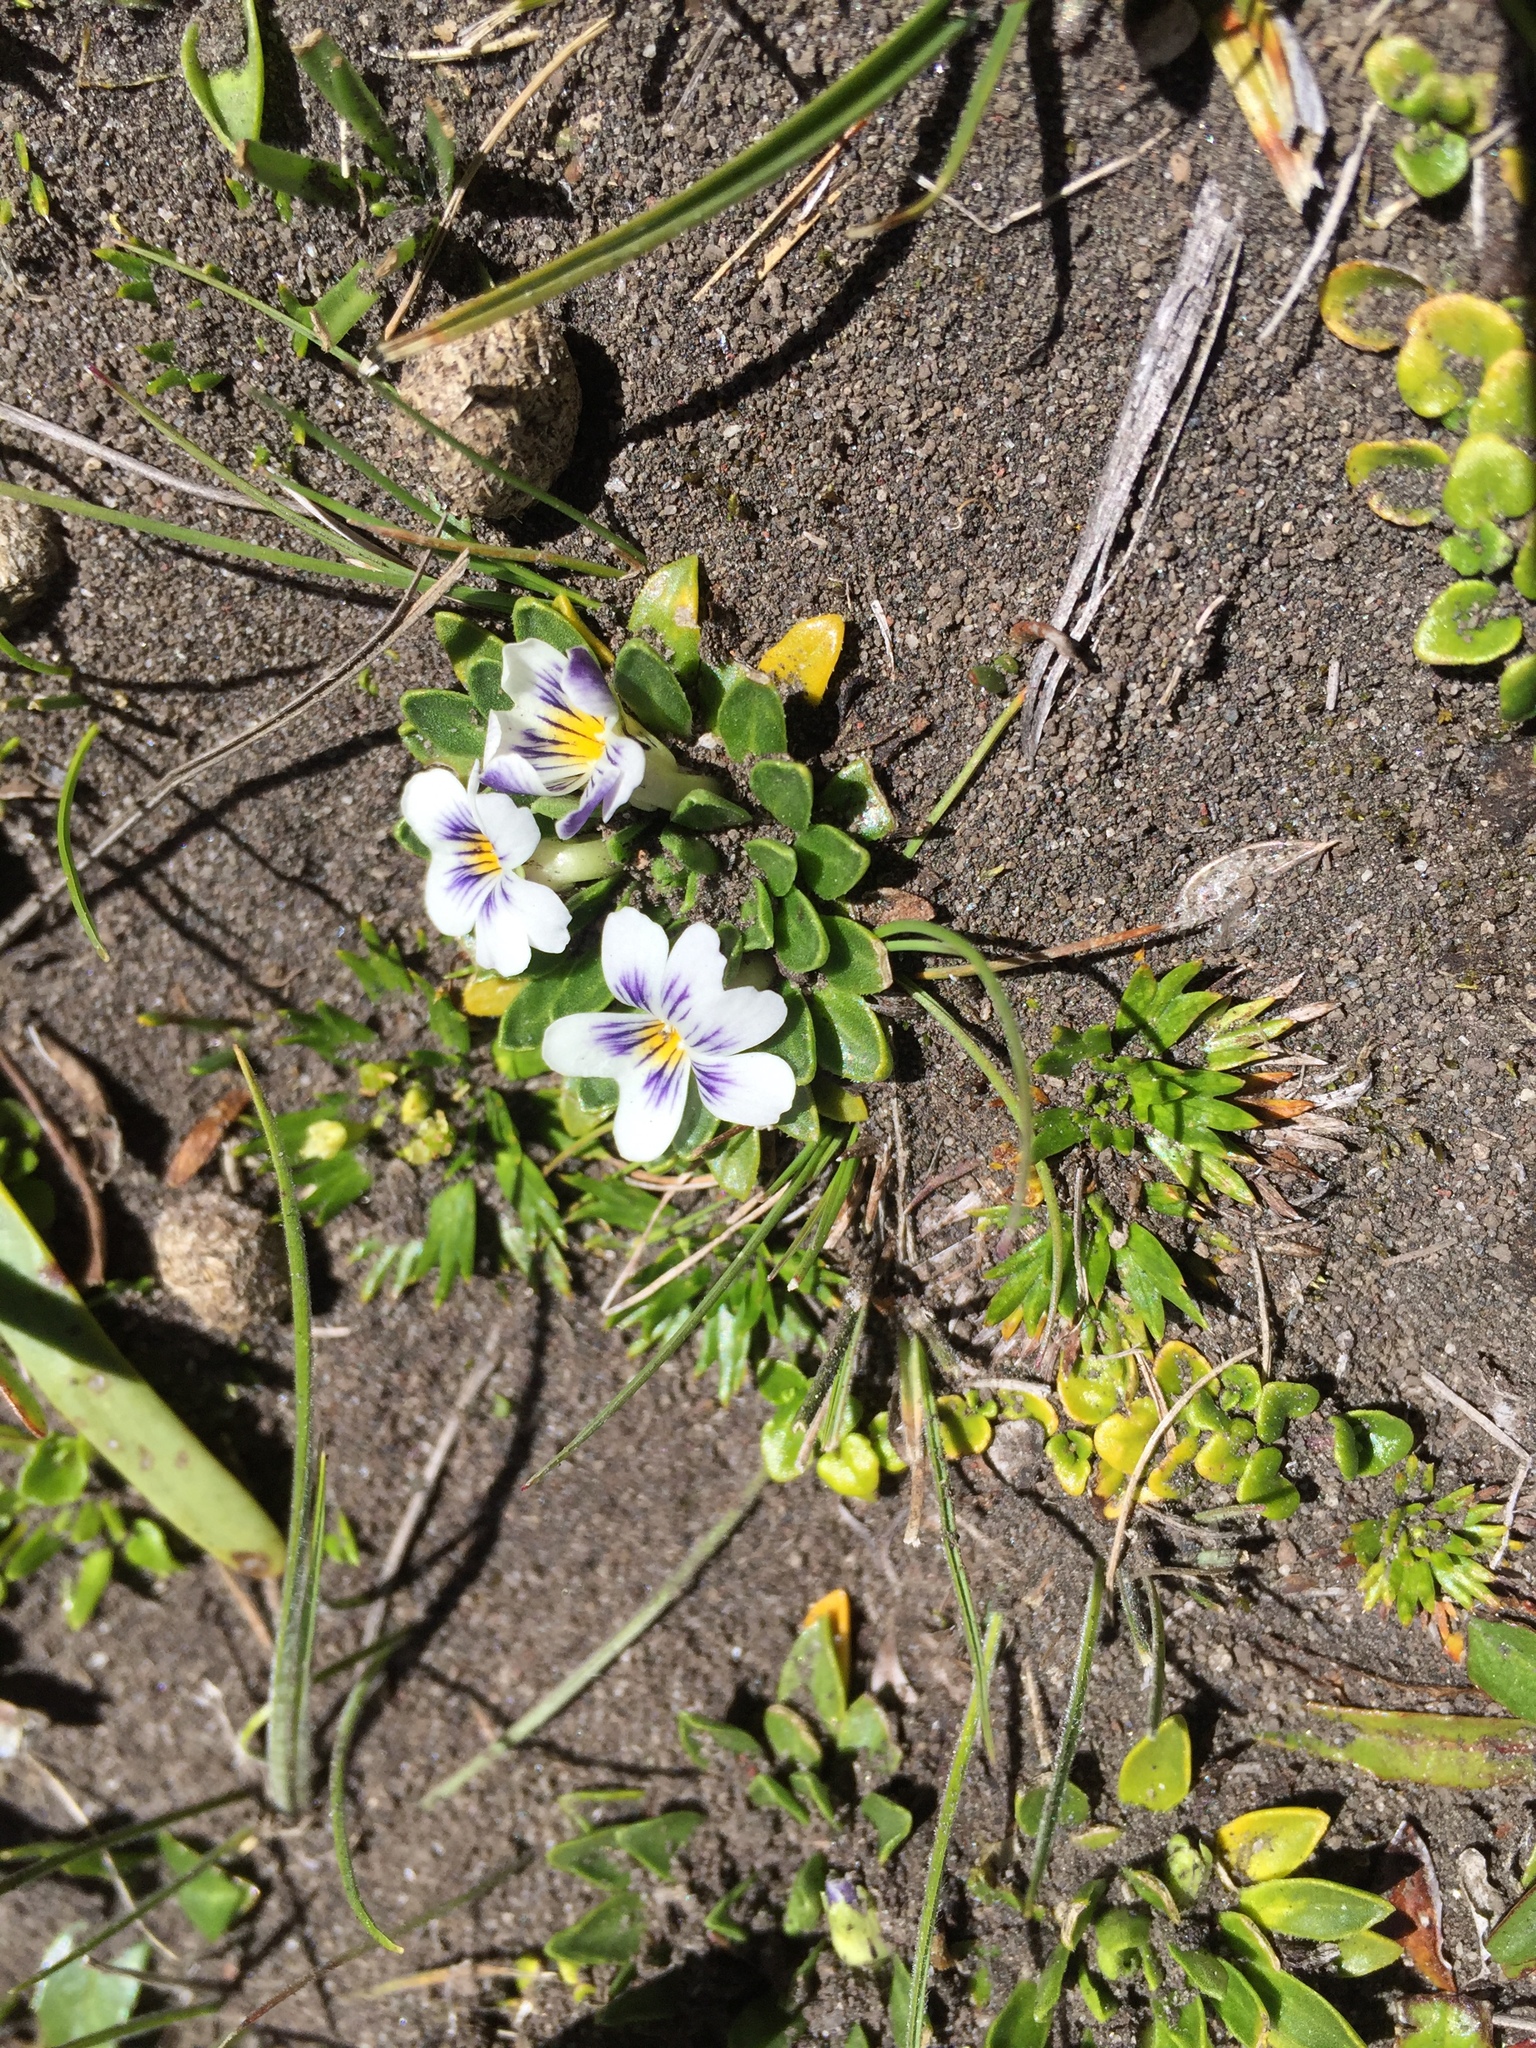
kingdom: Plantae
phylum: Tracheophyta
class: Magnoliopsida
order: Malpighiales
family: Violaceae
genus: Viola
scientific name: Viola bangii
